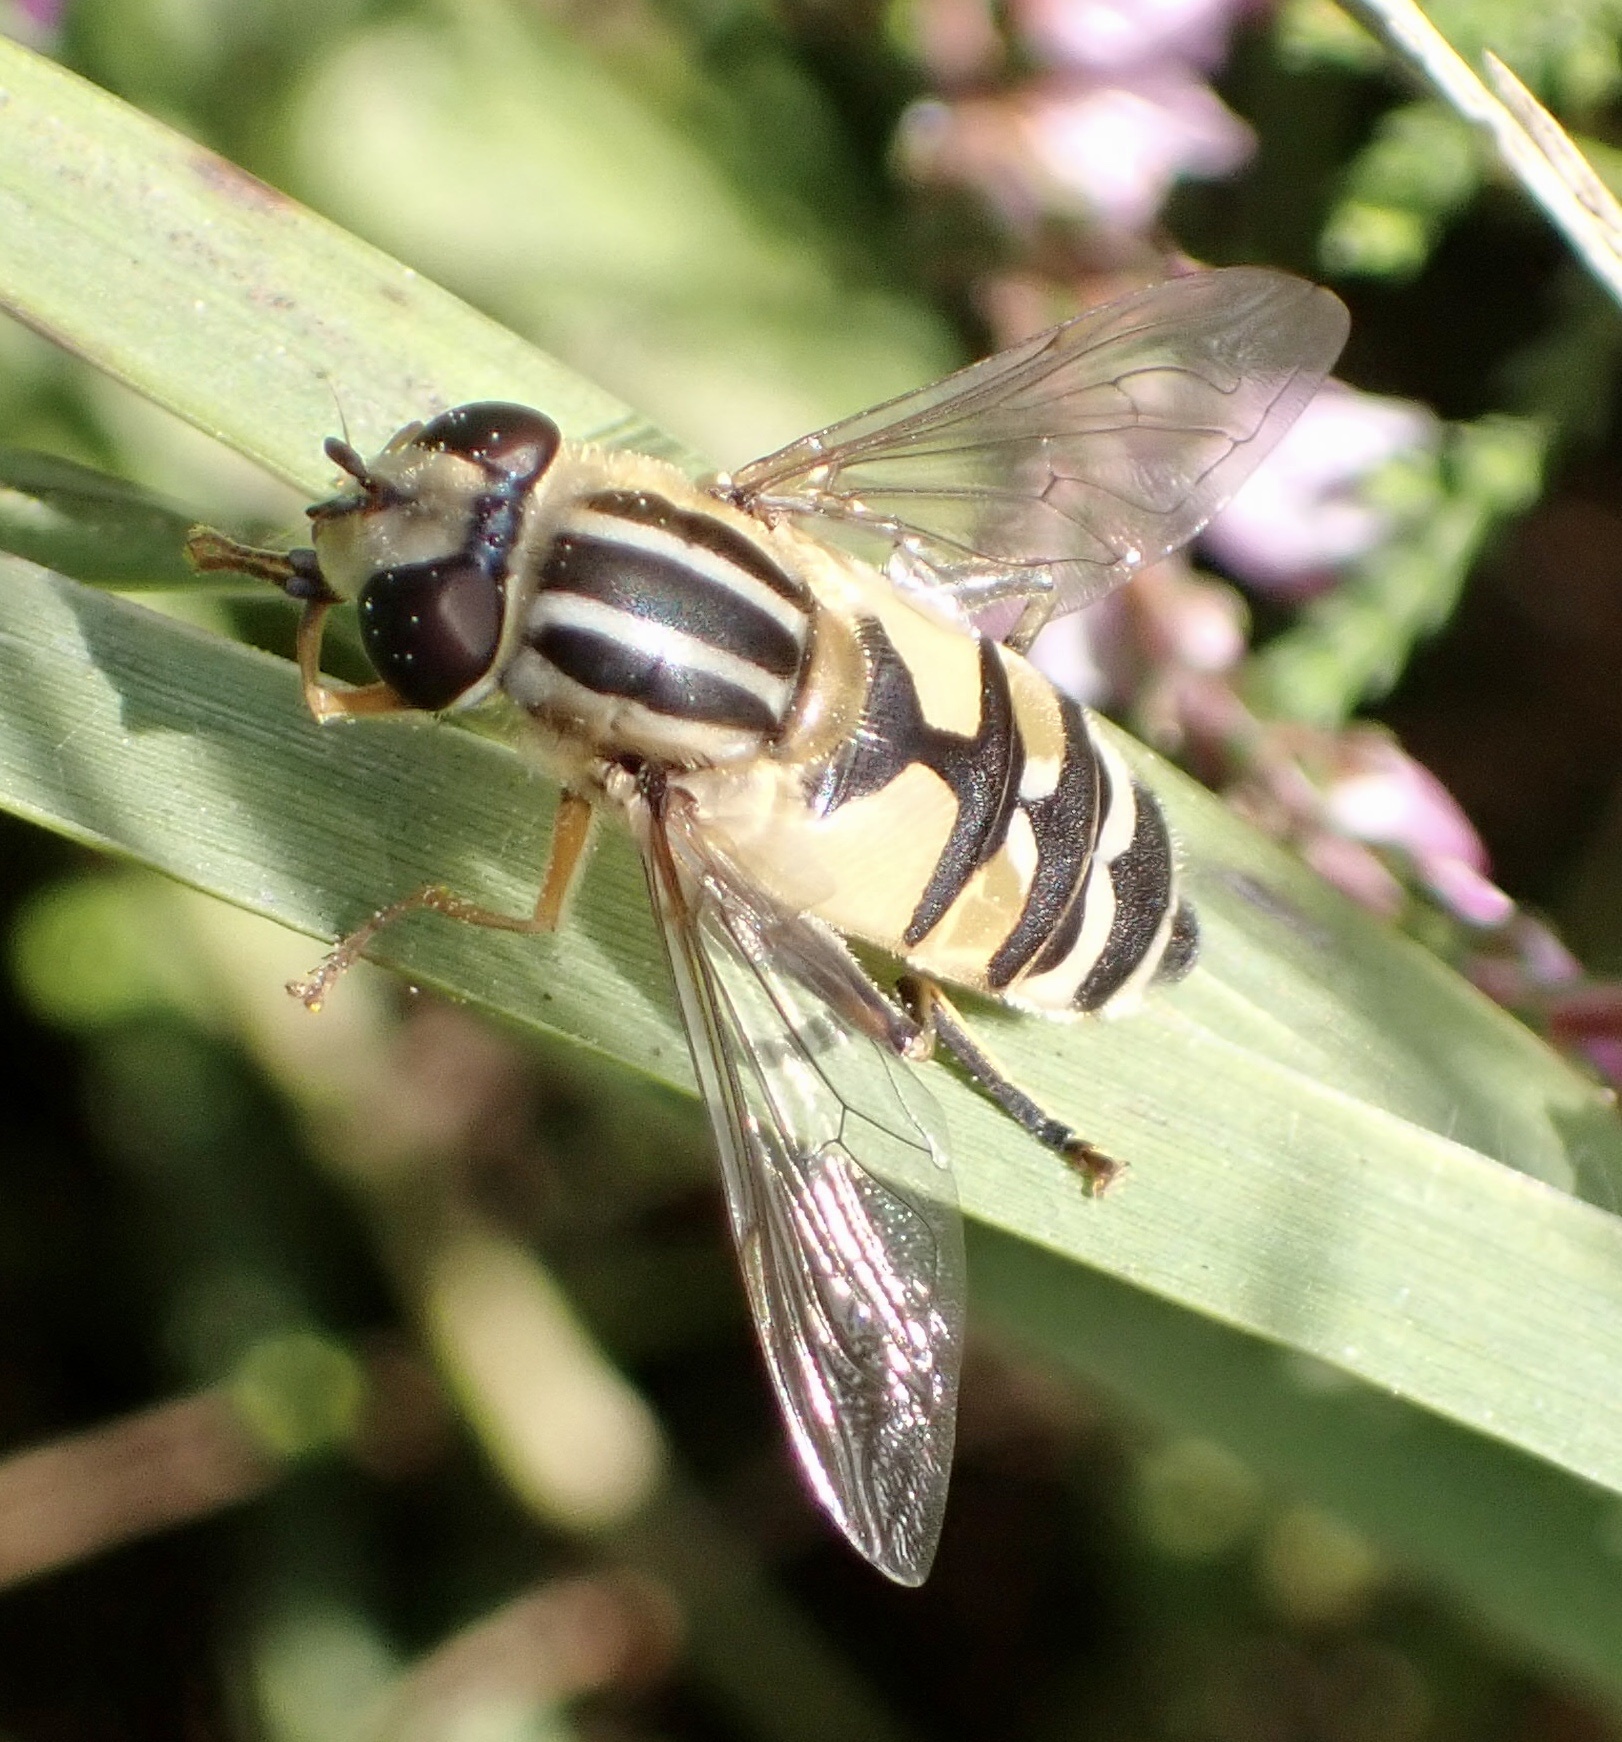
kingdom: Animalia
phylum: Arthropoda
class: Insecta
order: Diptera
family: Syrphidae
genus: Helophilus
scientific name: Helophilus trivittatus
